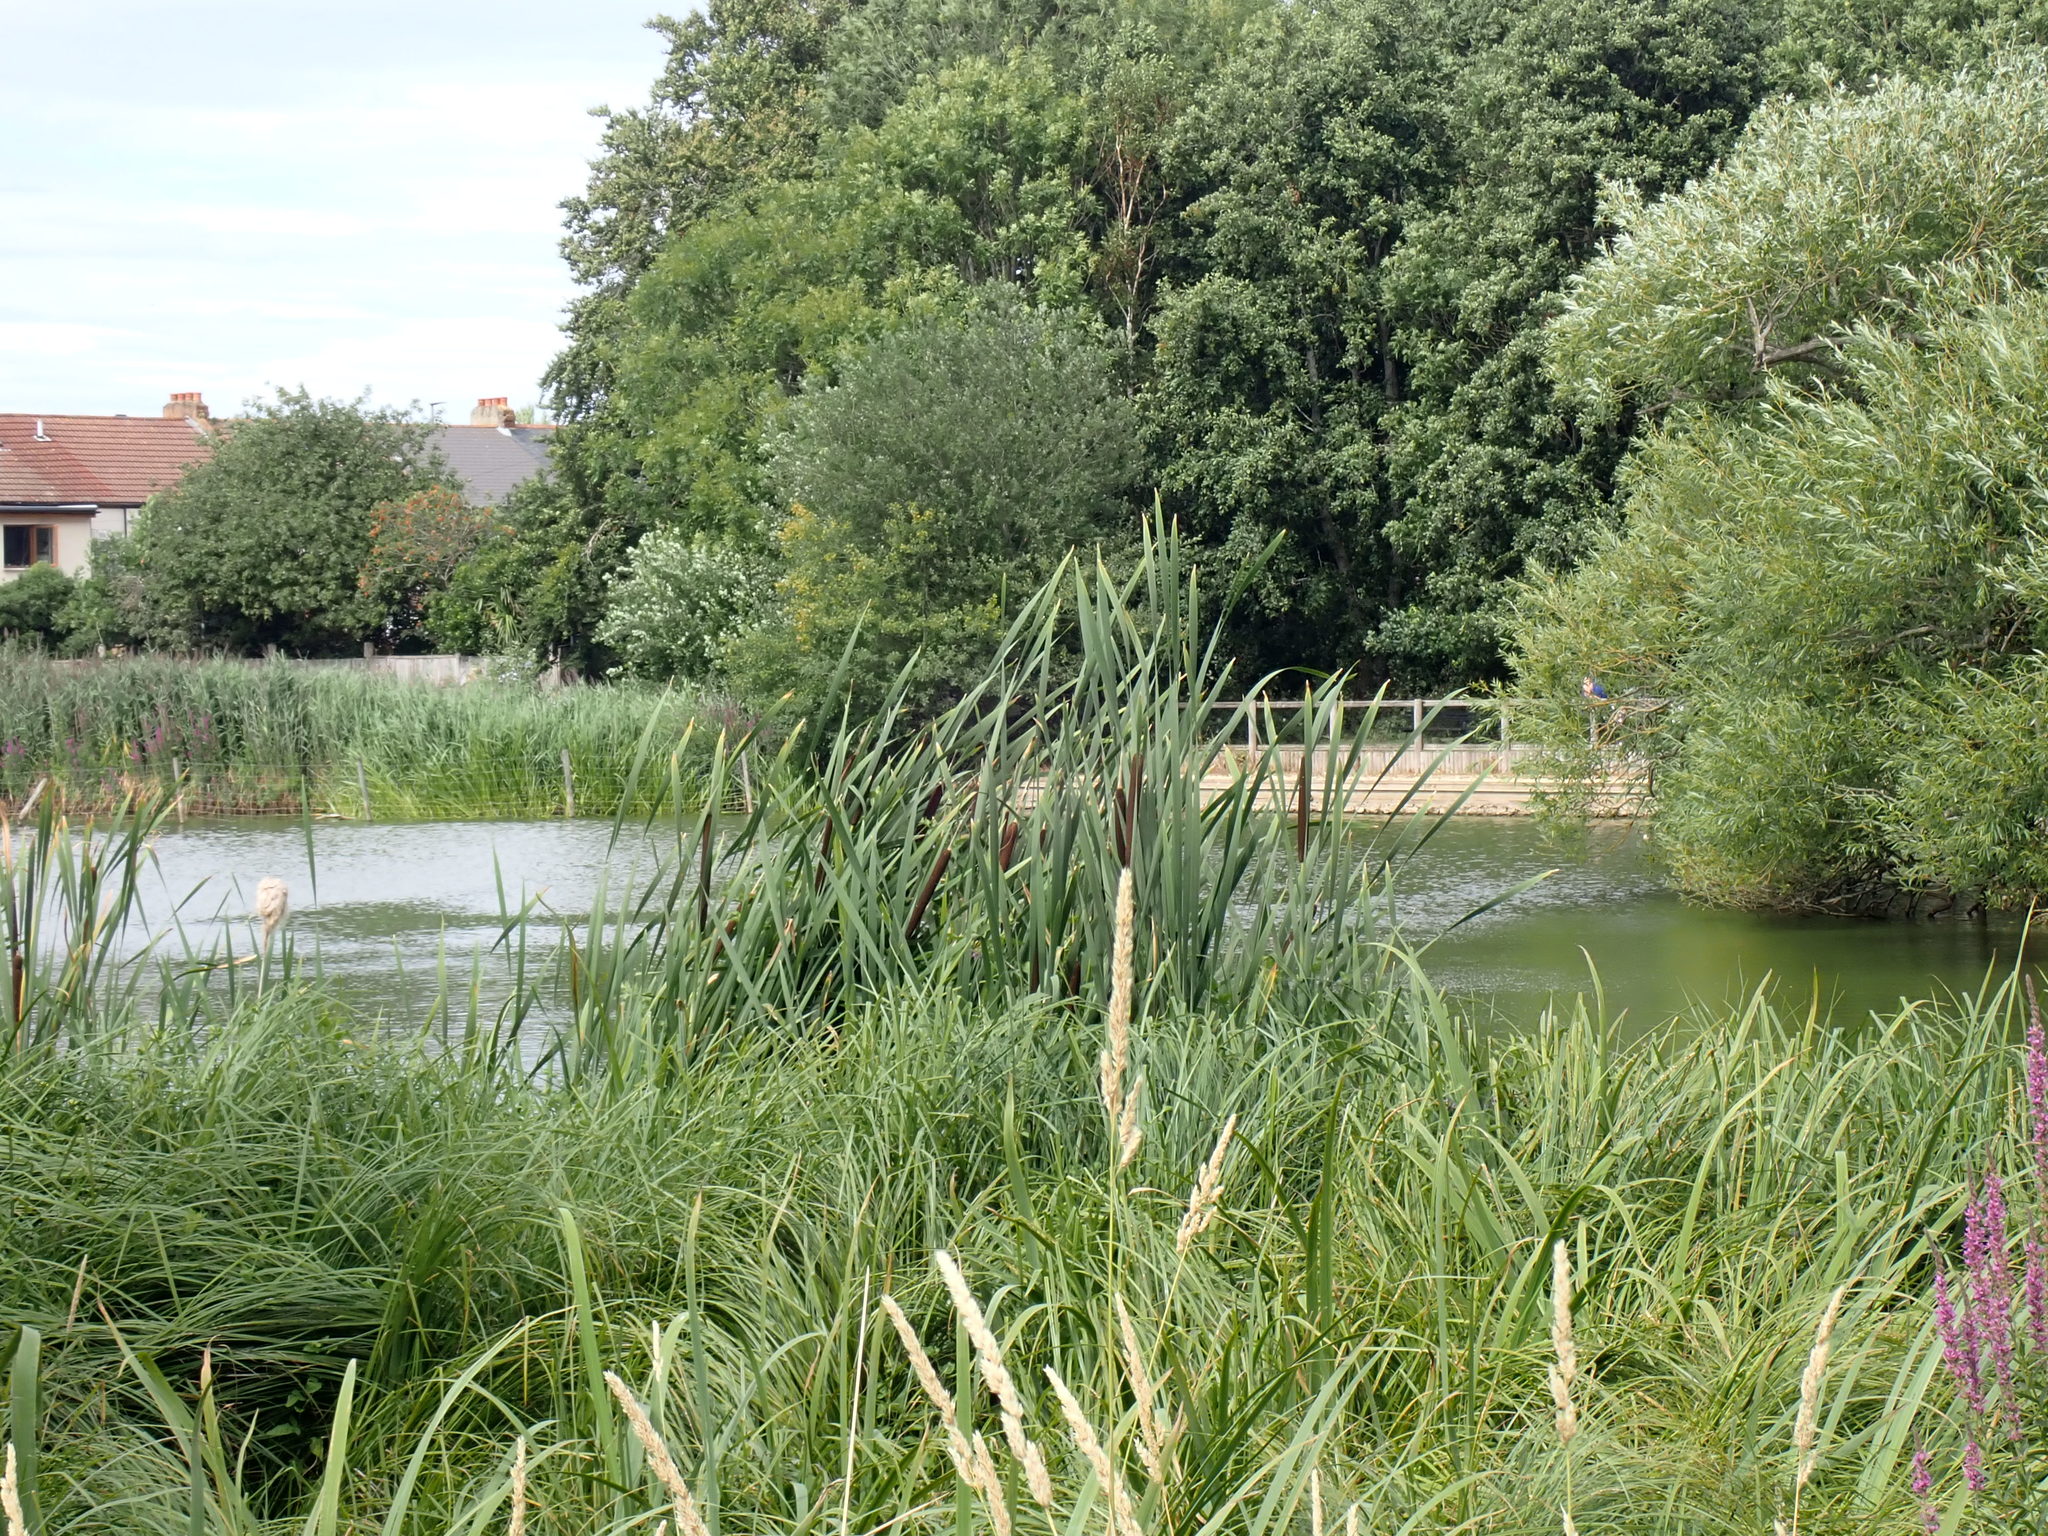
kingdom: Plantae
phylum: Tracheophyta
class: Liliopsida
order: Poales
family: Typhaceae
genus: Typha
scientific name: Typha latifolia
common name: Broadleaf cattail
